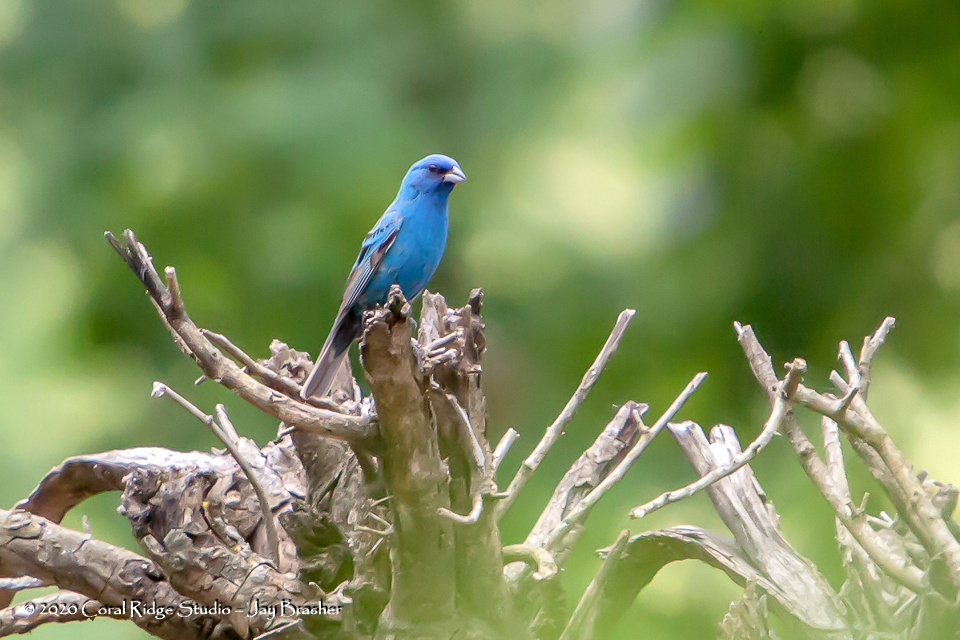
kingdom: Animalia
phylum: Chordata
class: Aves
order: Passeriformes
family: Cardinalidae
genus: Passerina
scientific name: Passerina cyanea
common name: Indigo bunting
